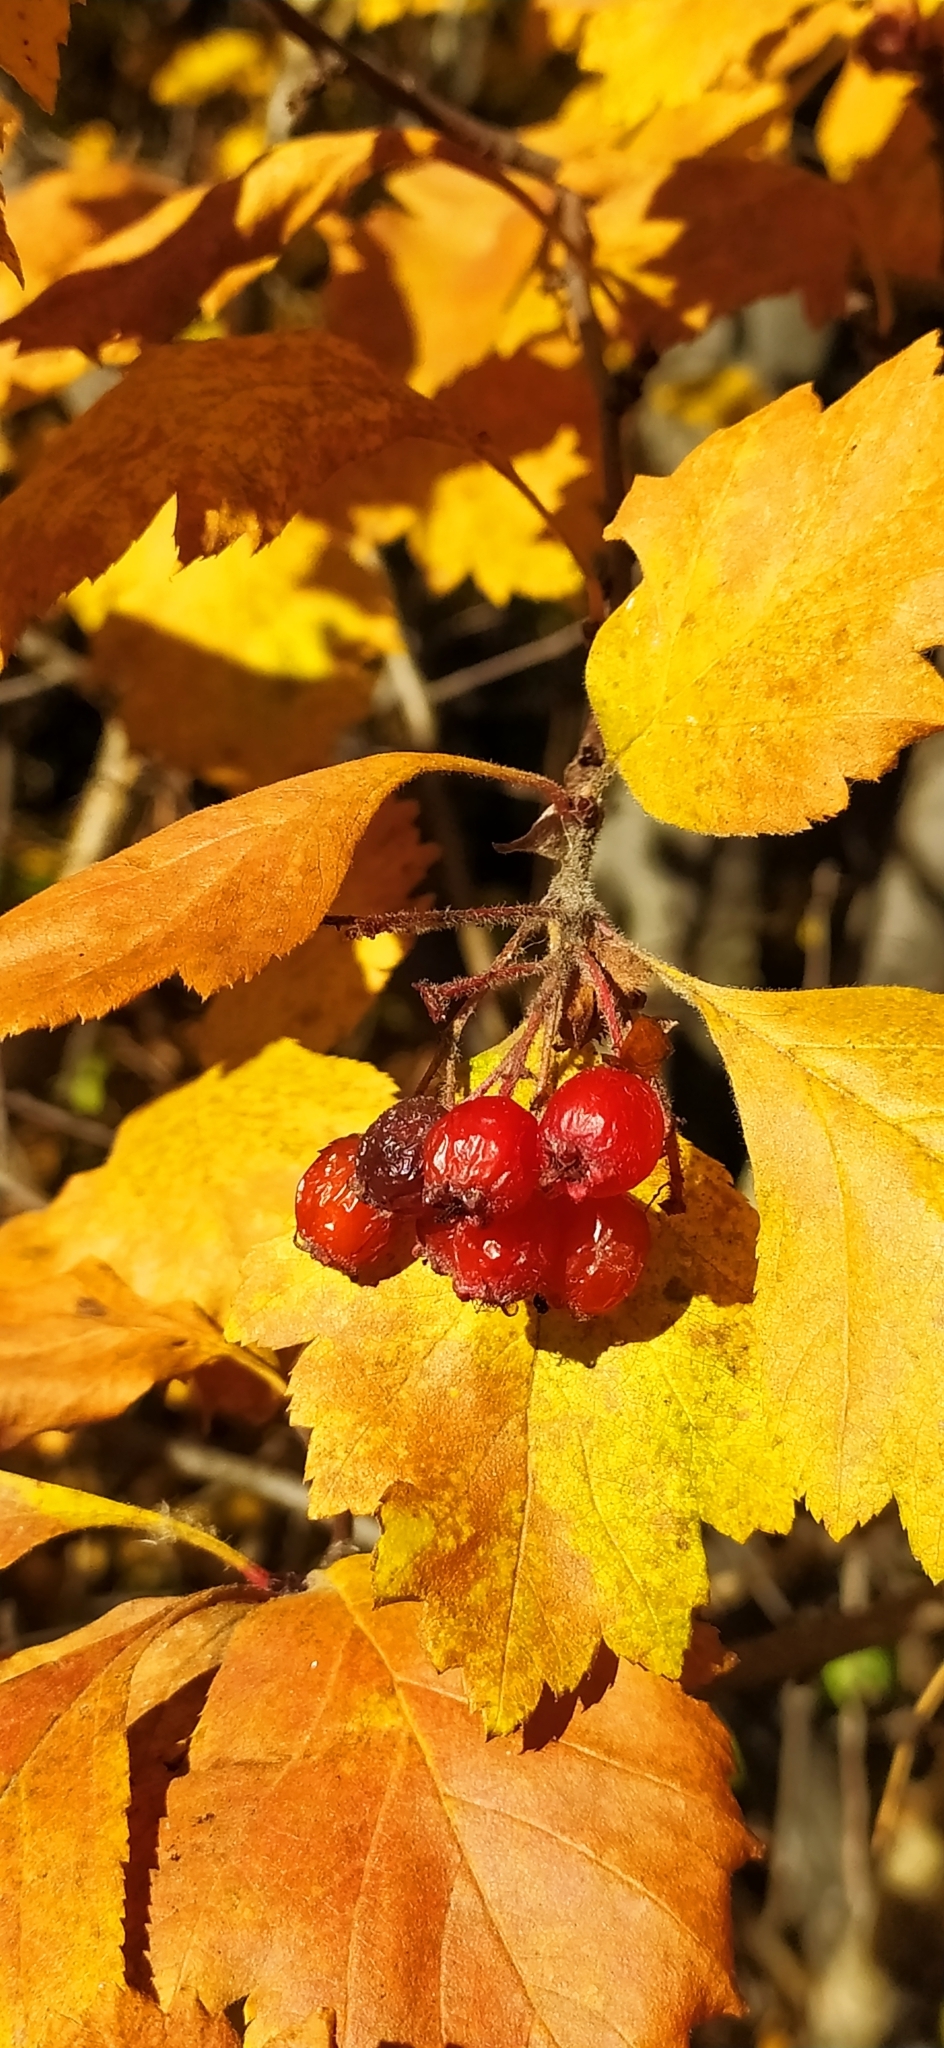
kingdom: Plantae
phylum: Tracheophyta
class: Magnoliopsida
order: Rosales
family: Rosaceae
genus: Crataegus
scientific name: Crataegus sanguinea
